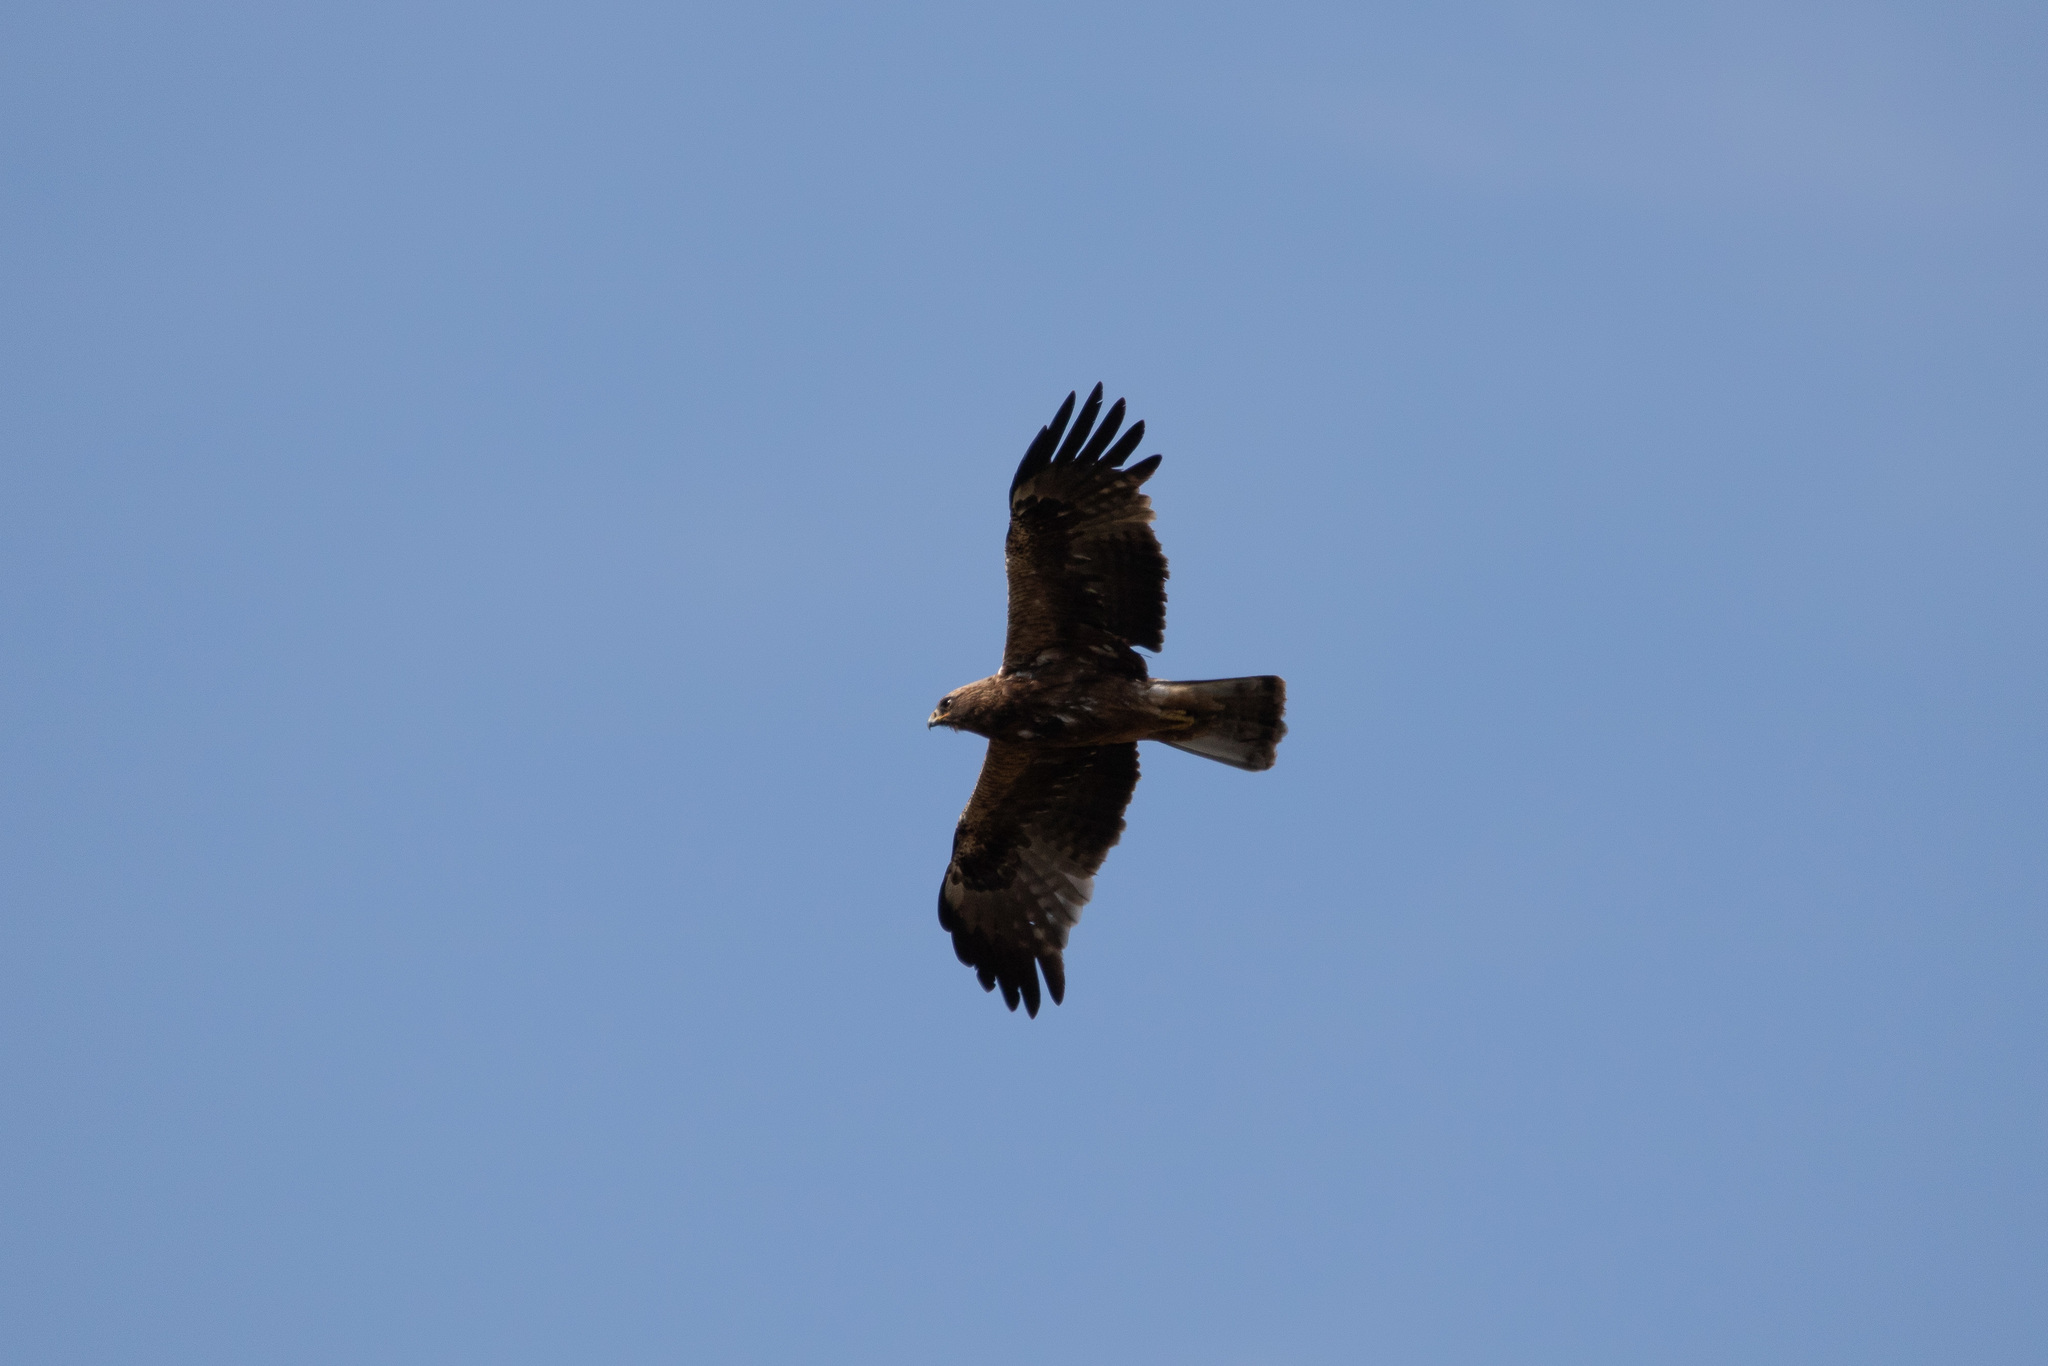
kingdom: Animalia
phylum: Chordata
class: Aves
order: Accipitriformes
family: Accipitridae
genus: Hieraaetus
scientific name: Hieraaetus pennatus
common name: Booted eagle
